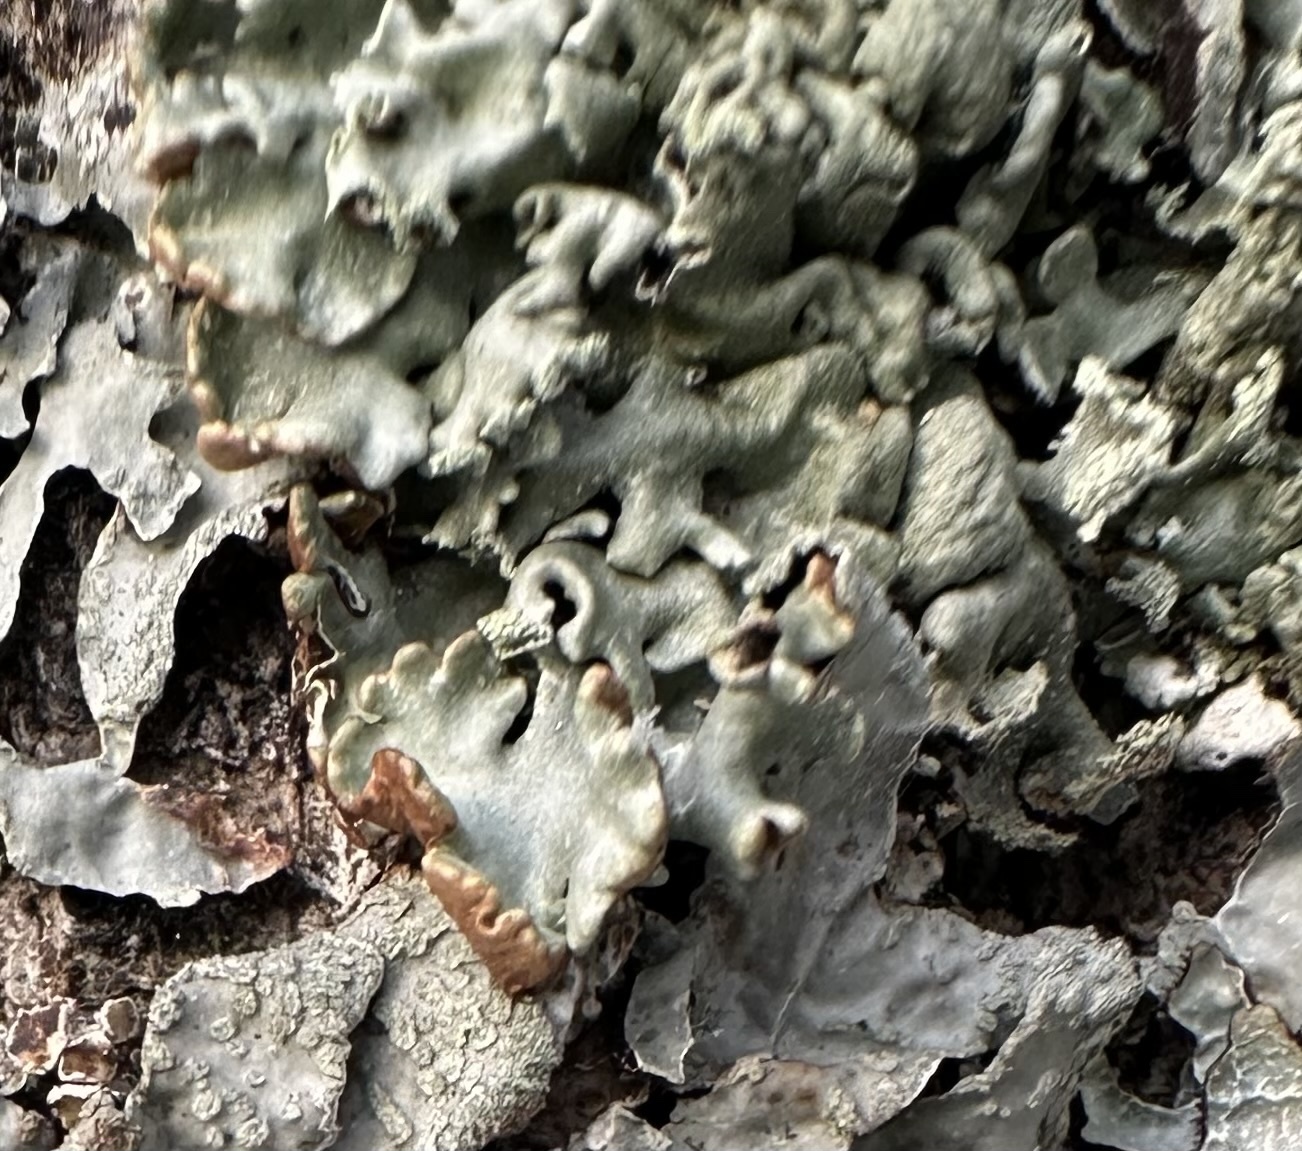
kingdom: Fungi
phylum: Ascomycota
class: Lecanoromycetes
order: Lecanorales
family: Parmeliaceae
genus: Hypogymnia
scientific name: Hypogymnia physodes
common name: Dark crottle
